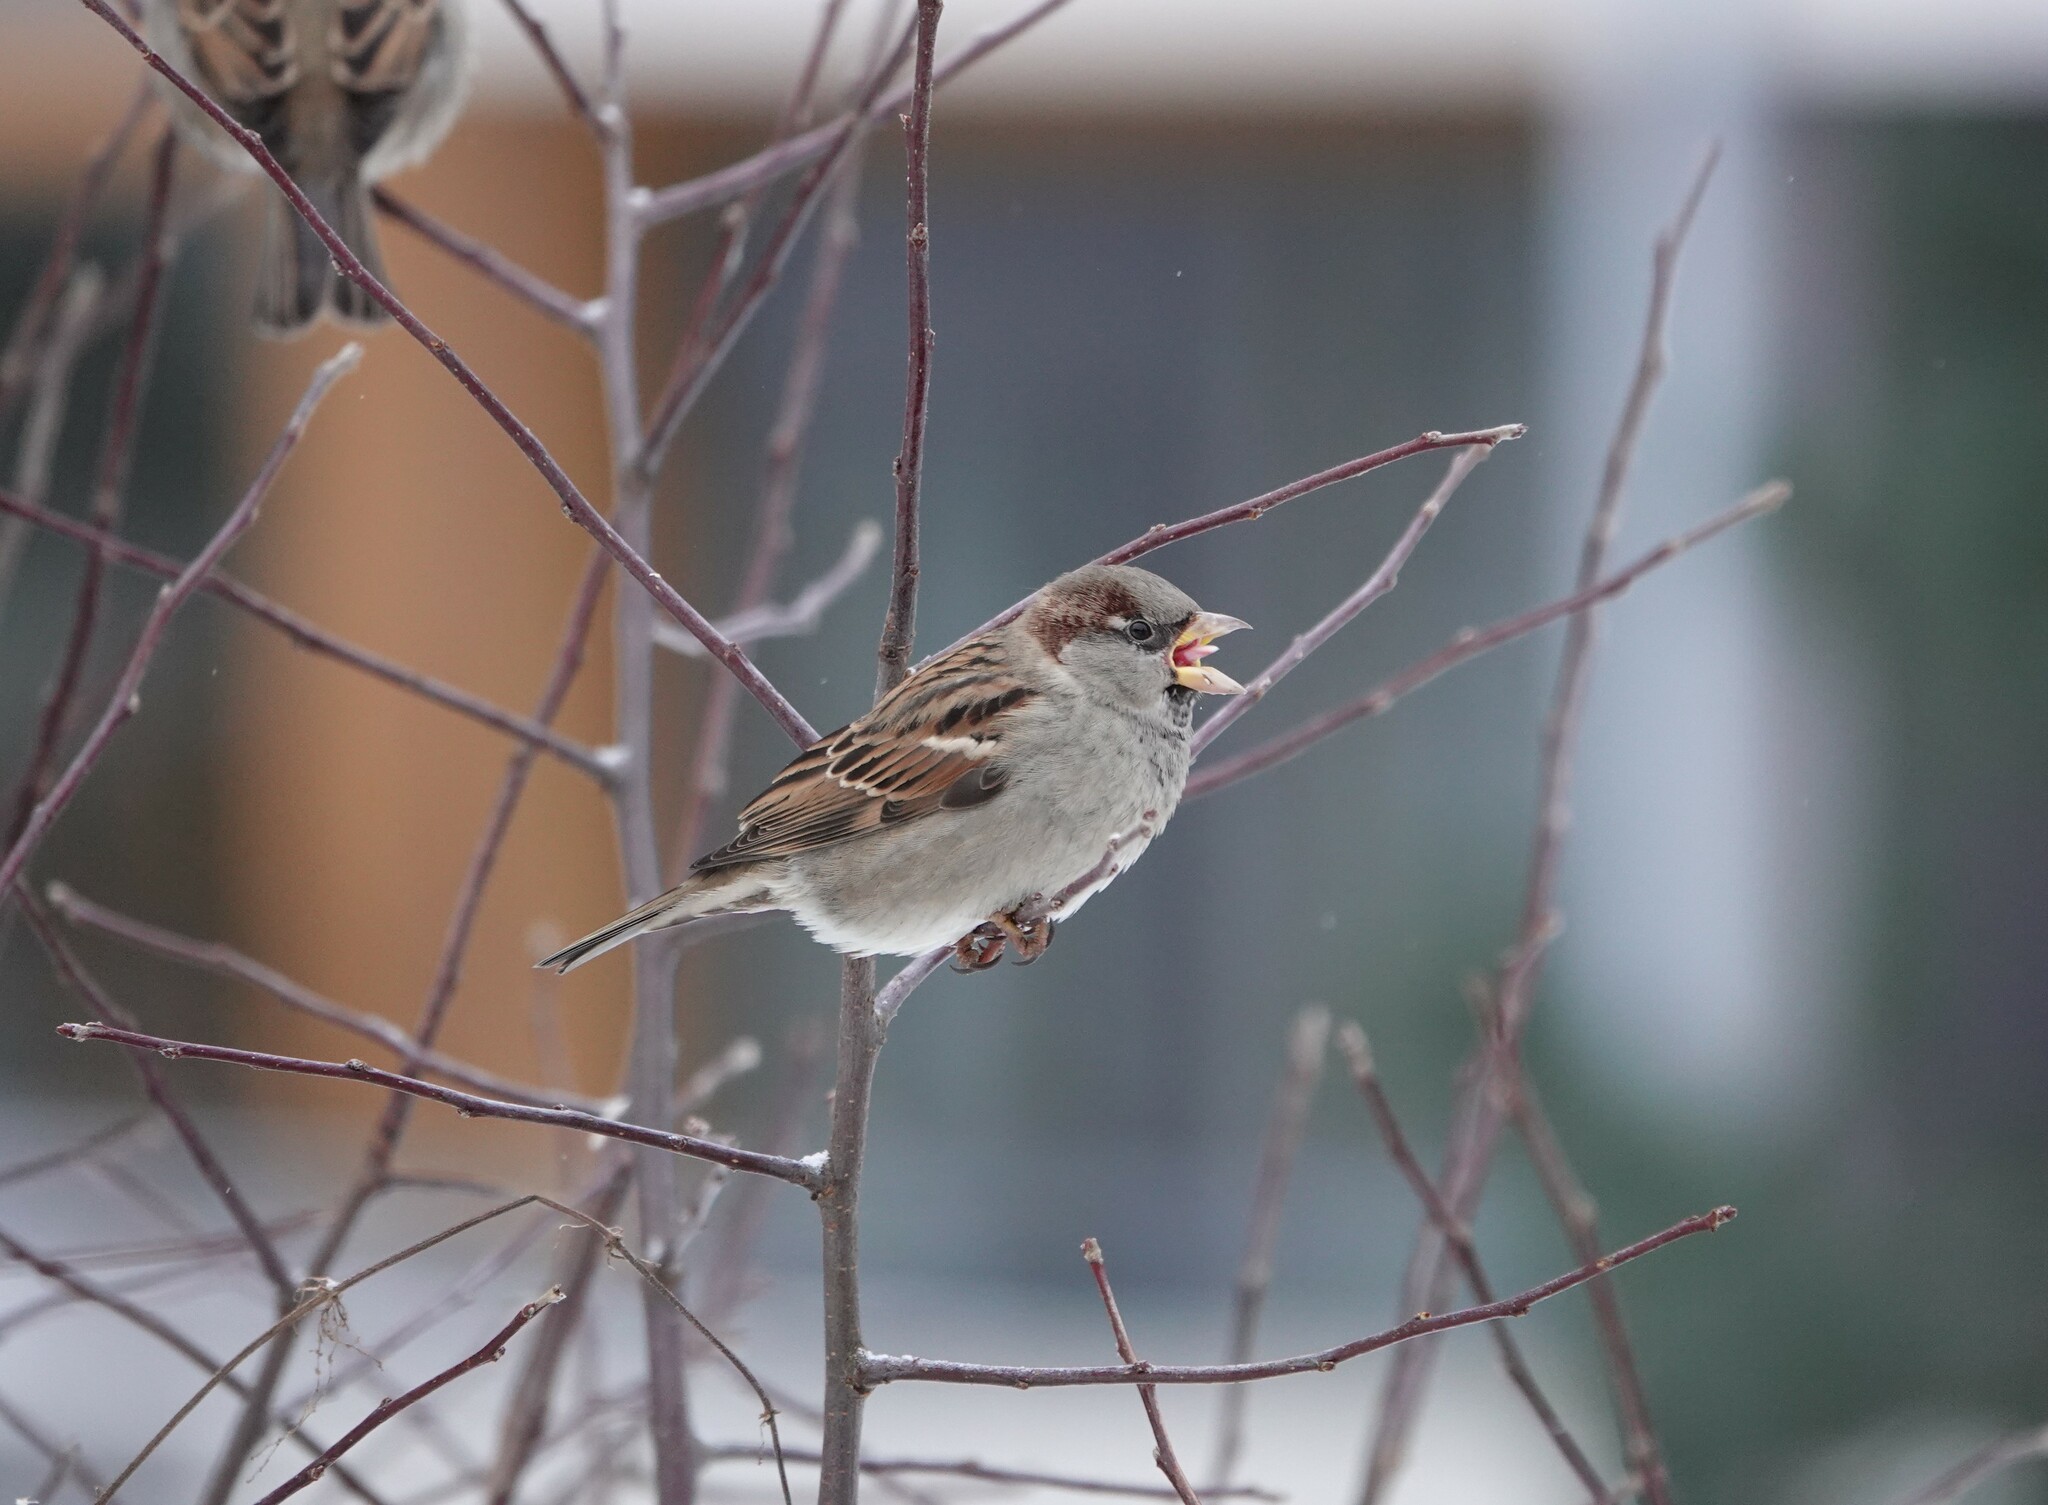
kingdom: Animalia
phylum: Chordata
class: Aves
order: Passeriformes
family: Passeridae
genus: Passer
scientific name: Passer domesticus
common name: House sparrow
